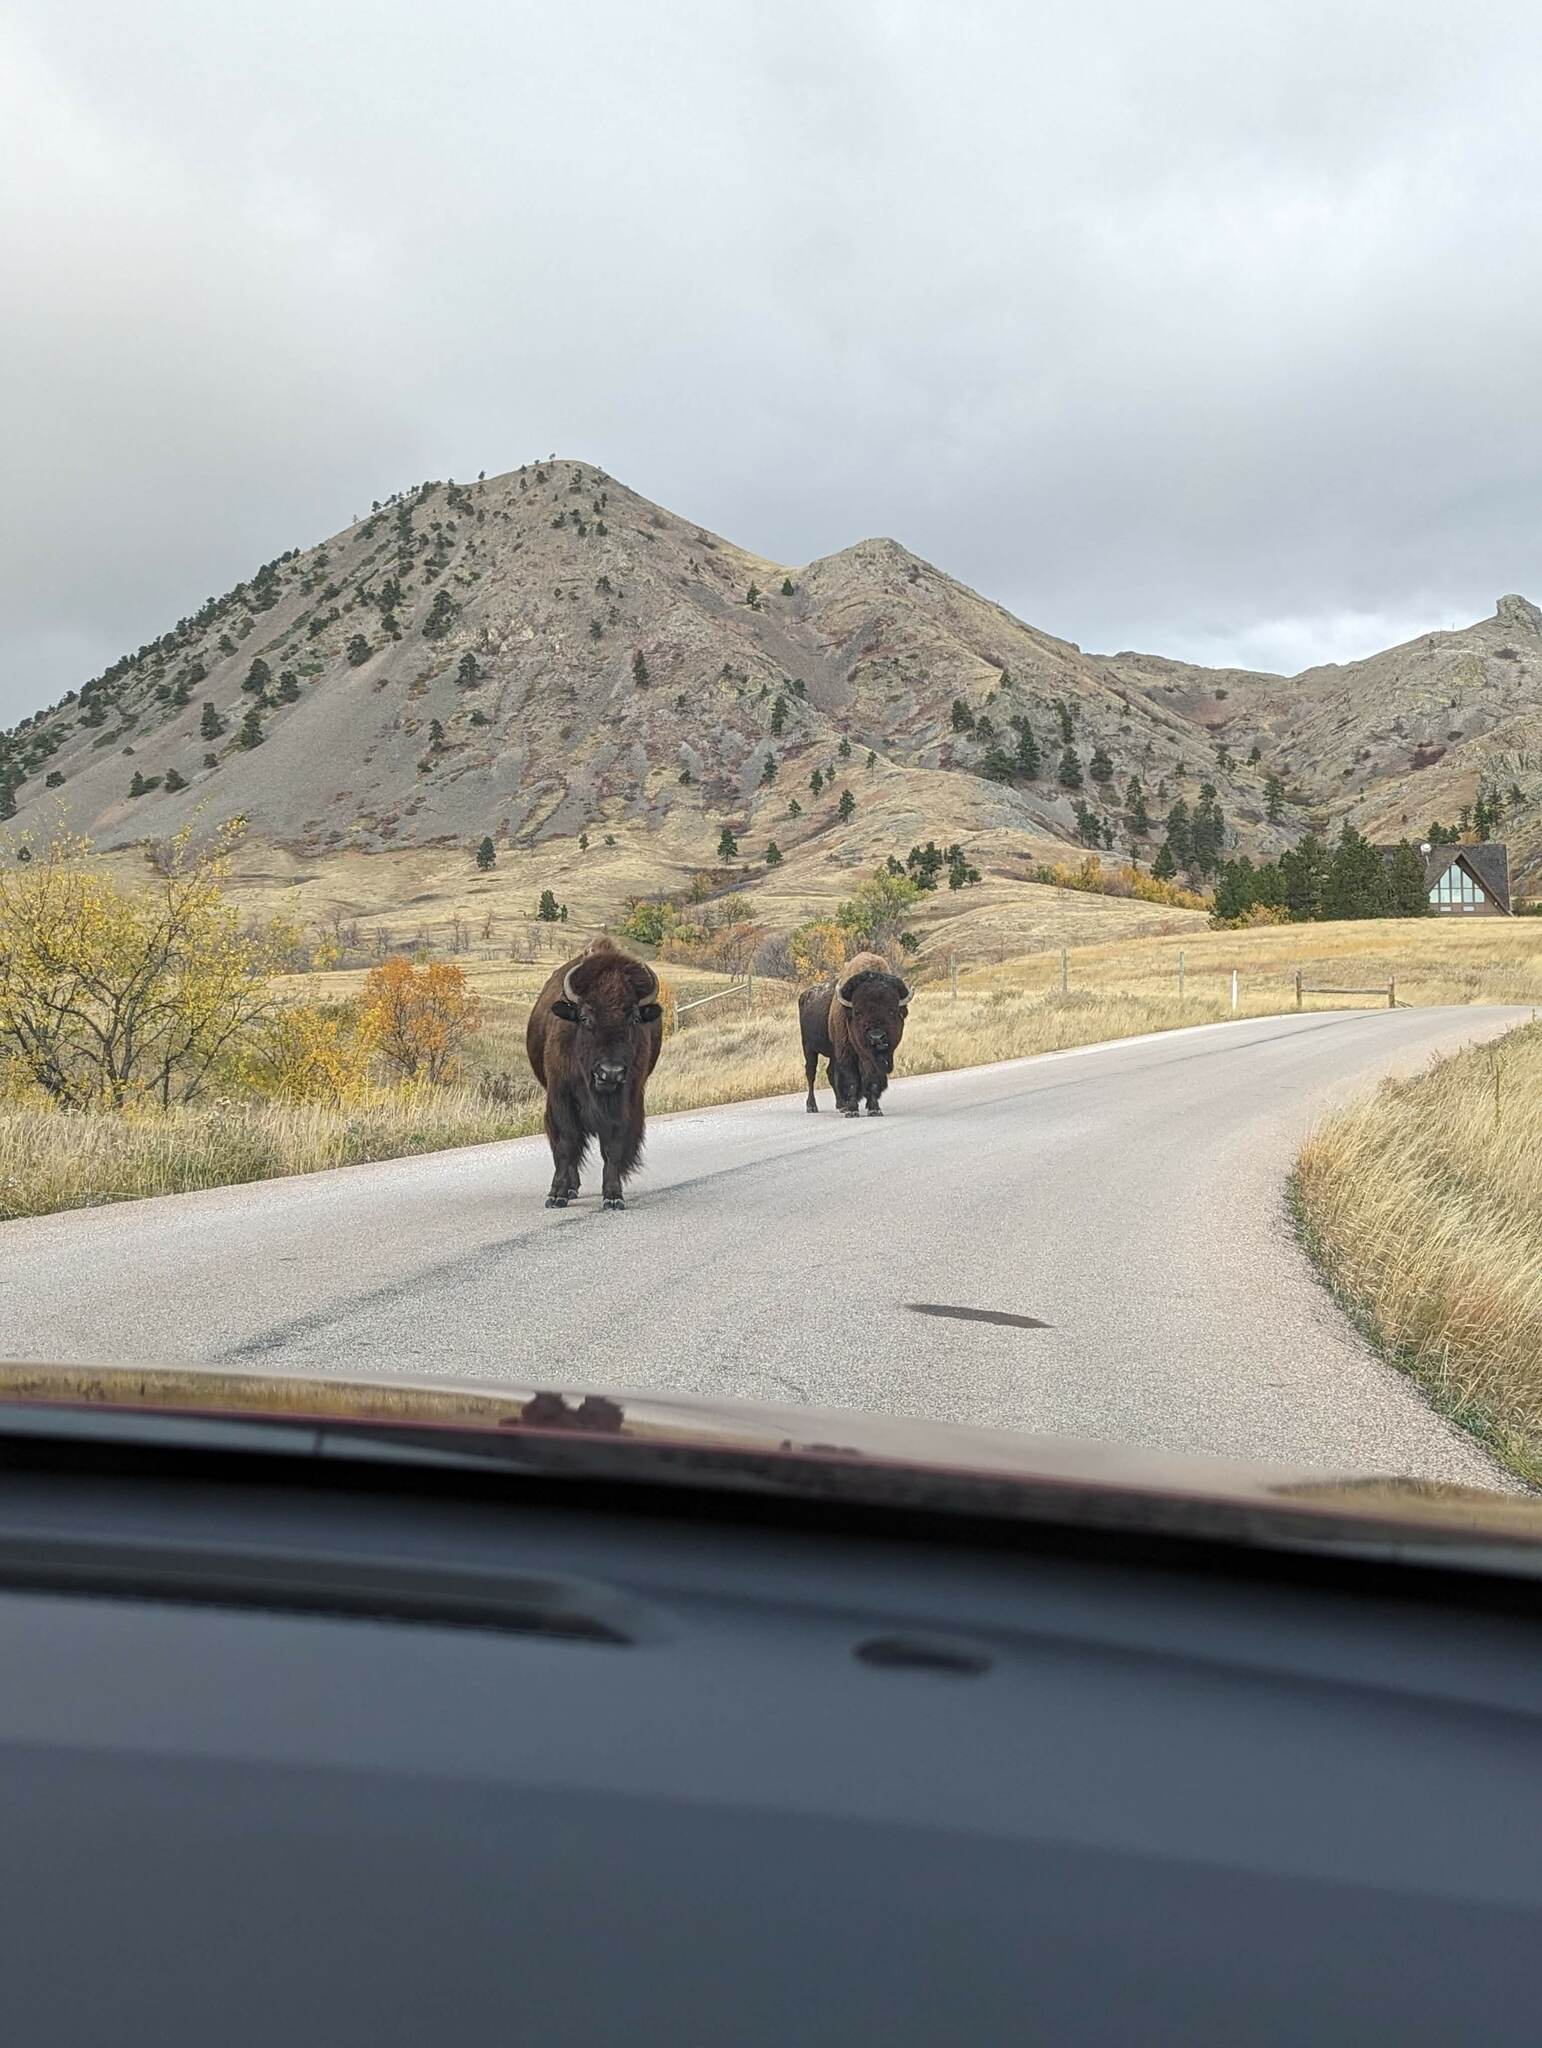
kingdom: Animalia
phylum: Chordata
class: Mammalia
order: Artiodactyla
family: Bovidae
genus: Bison
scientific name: Bison bison
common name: American bison
